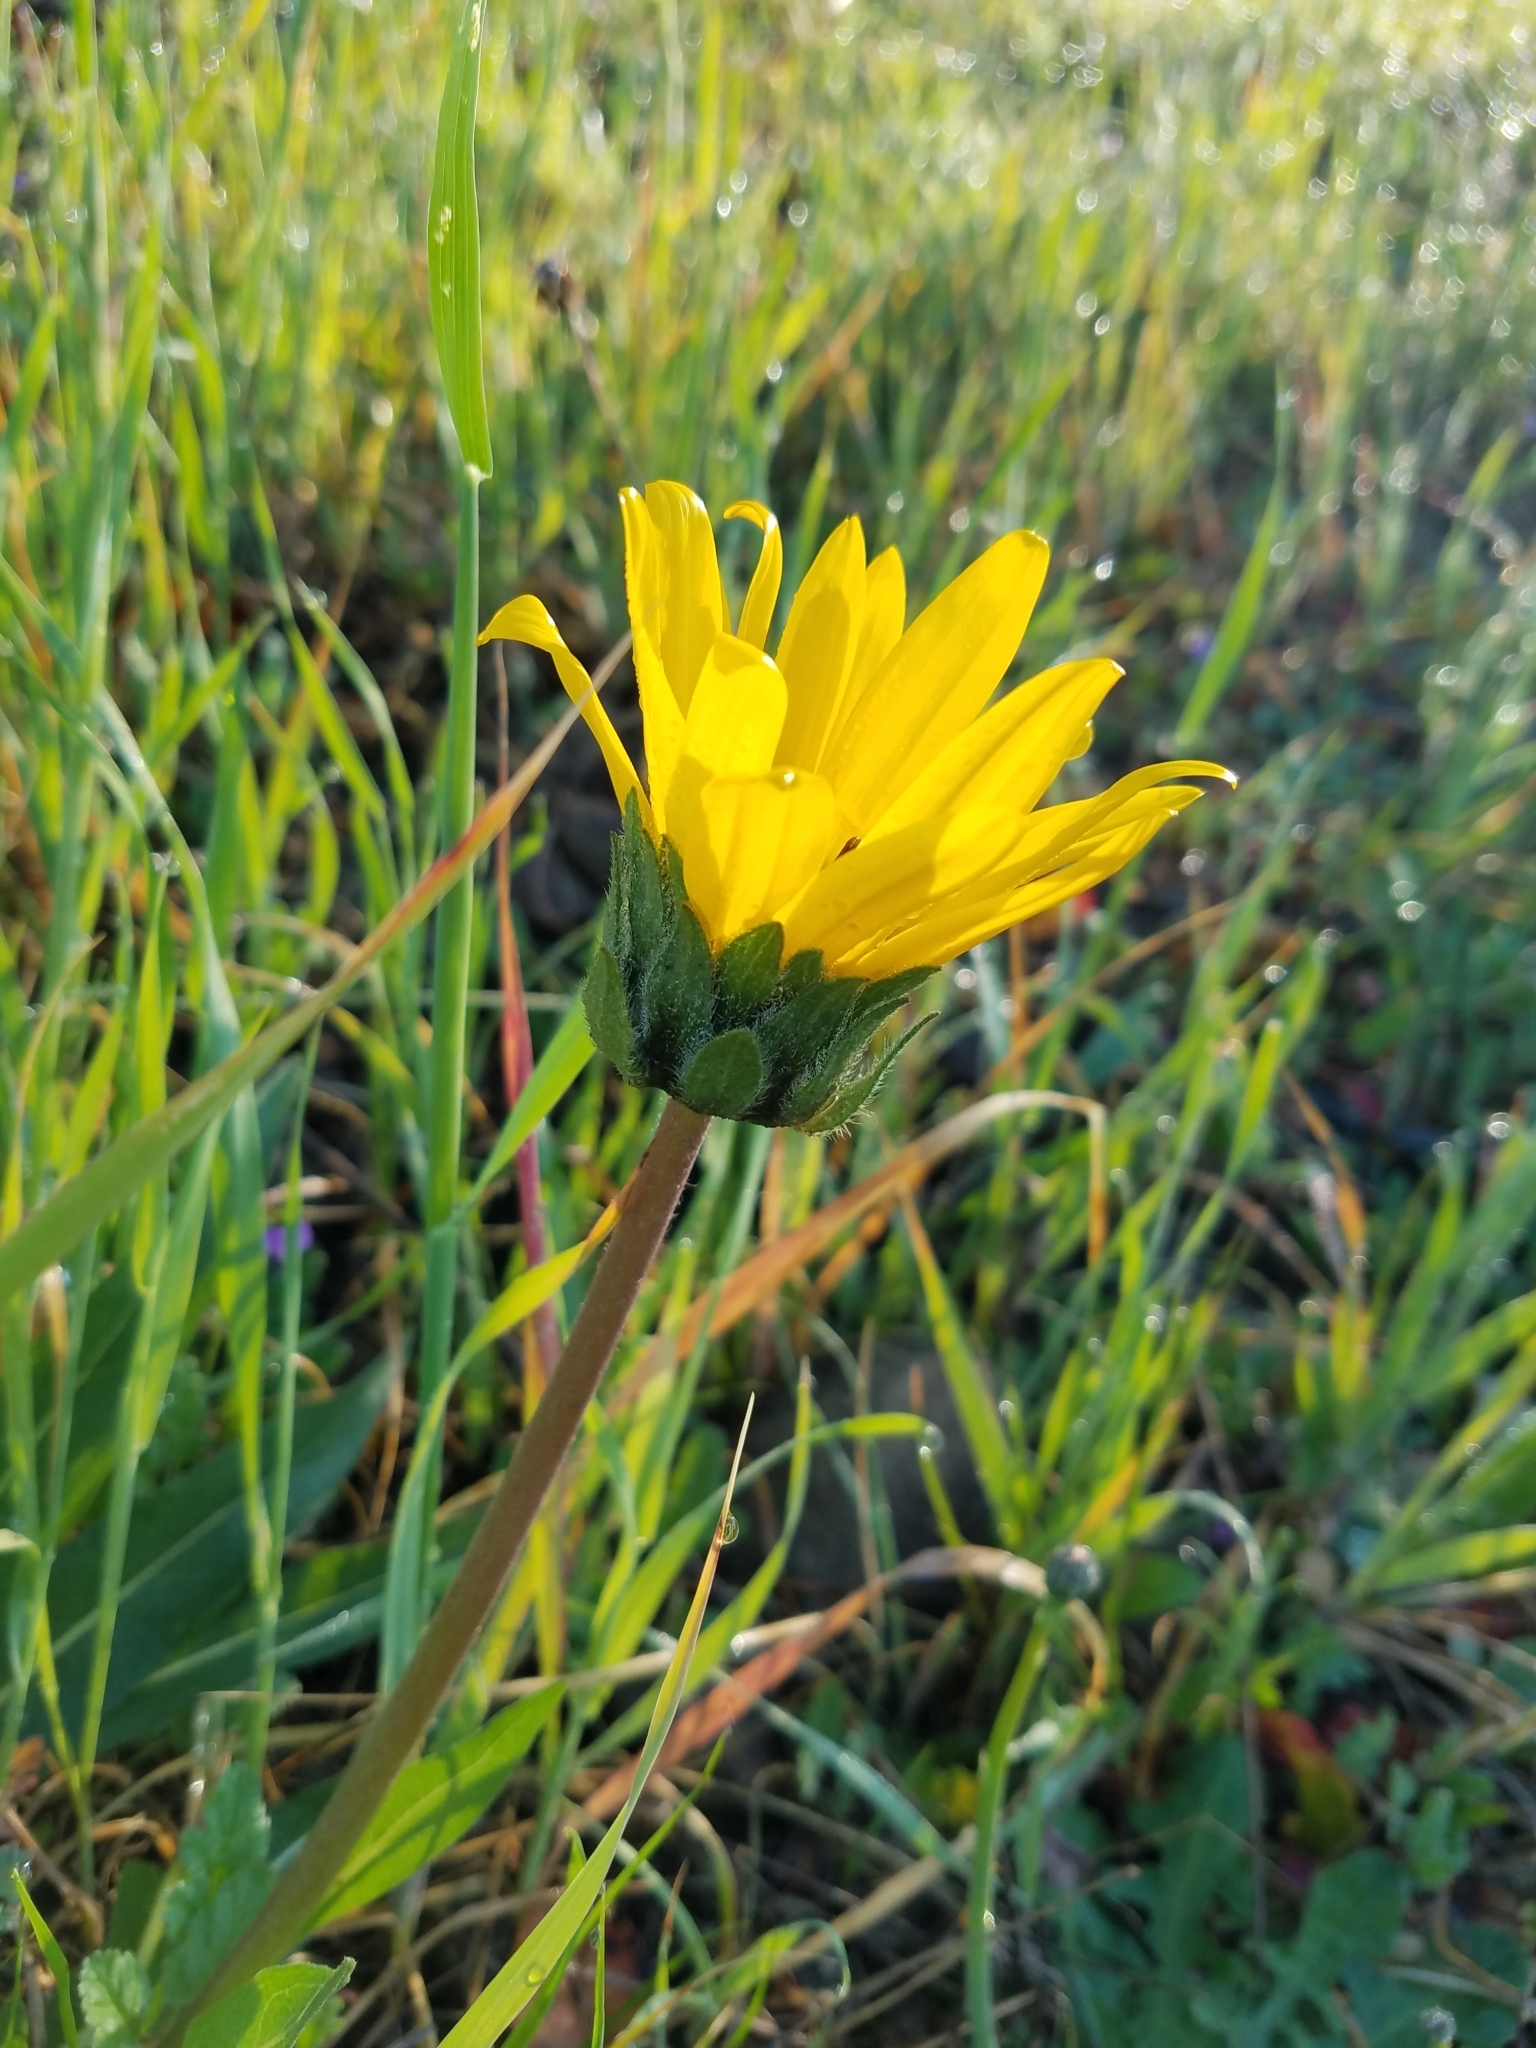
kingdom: Plantae
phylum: Tracheophyta
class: Magnoliopsida
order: Asterales
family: Asteraceae
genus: Wyethia
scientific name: Wyethia angustifolia
